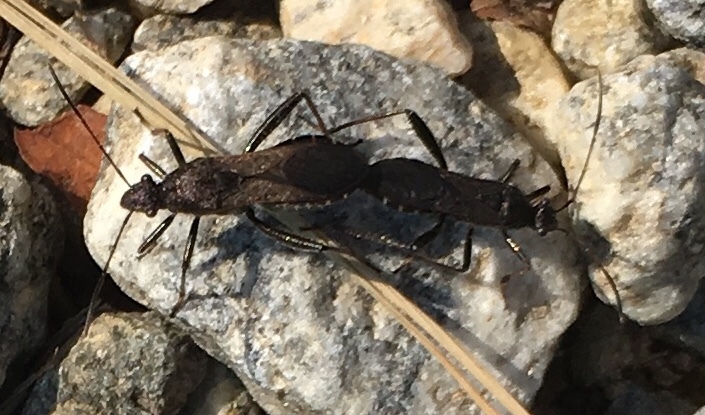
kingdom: Animalia
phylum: Arthropoda
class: Insecta
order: Hemiptera
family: Alydidae
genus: Alydus
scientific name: Alydus eurinus
